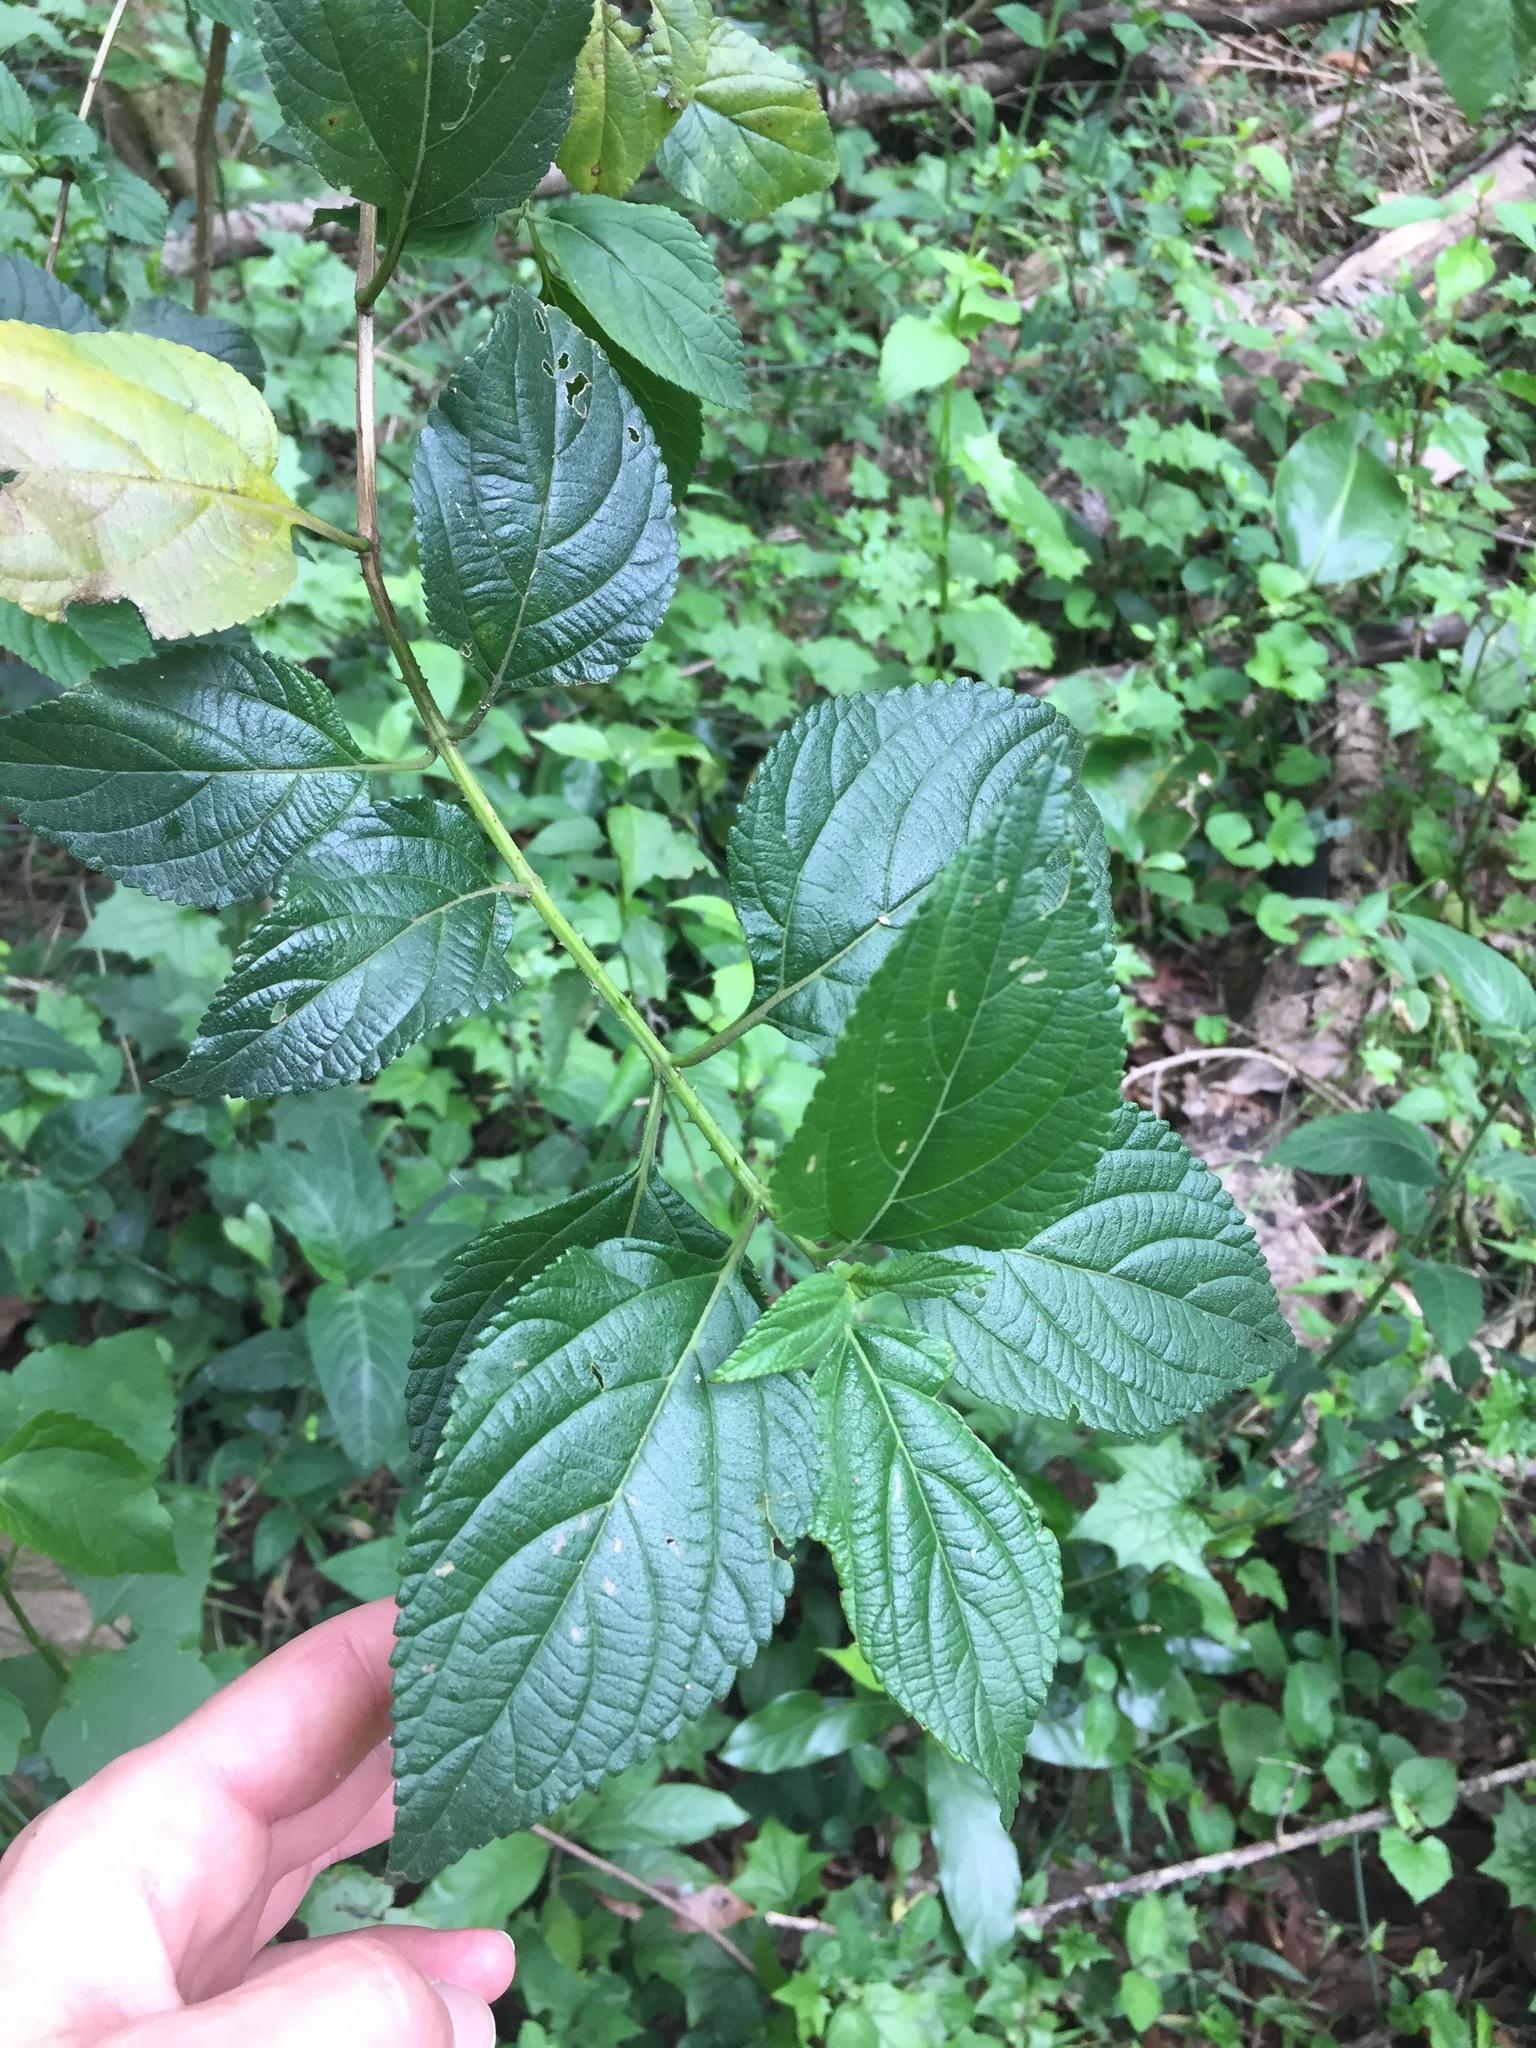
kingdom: Plantae
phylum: Tracheophyta
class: Magnoliopsida
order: Lamiales
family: Verbenaceae
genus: Lantana
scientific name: Lantana camara
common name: Lantana
